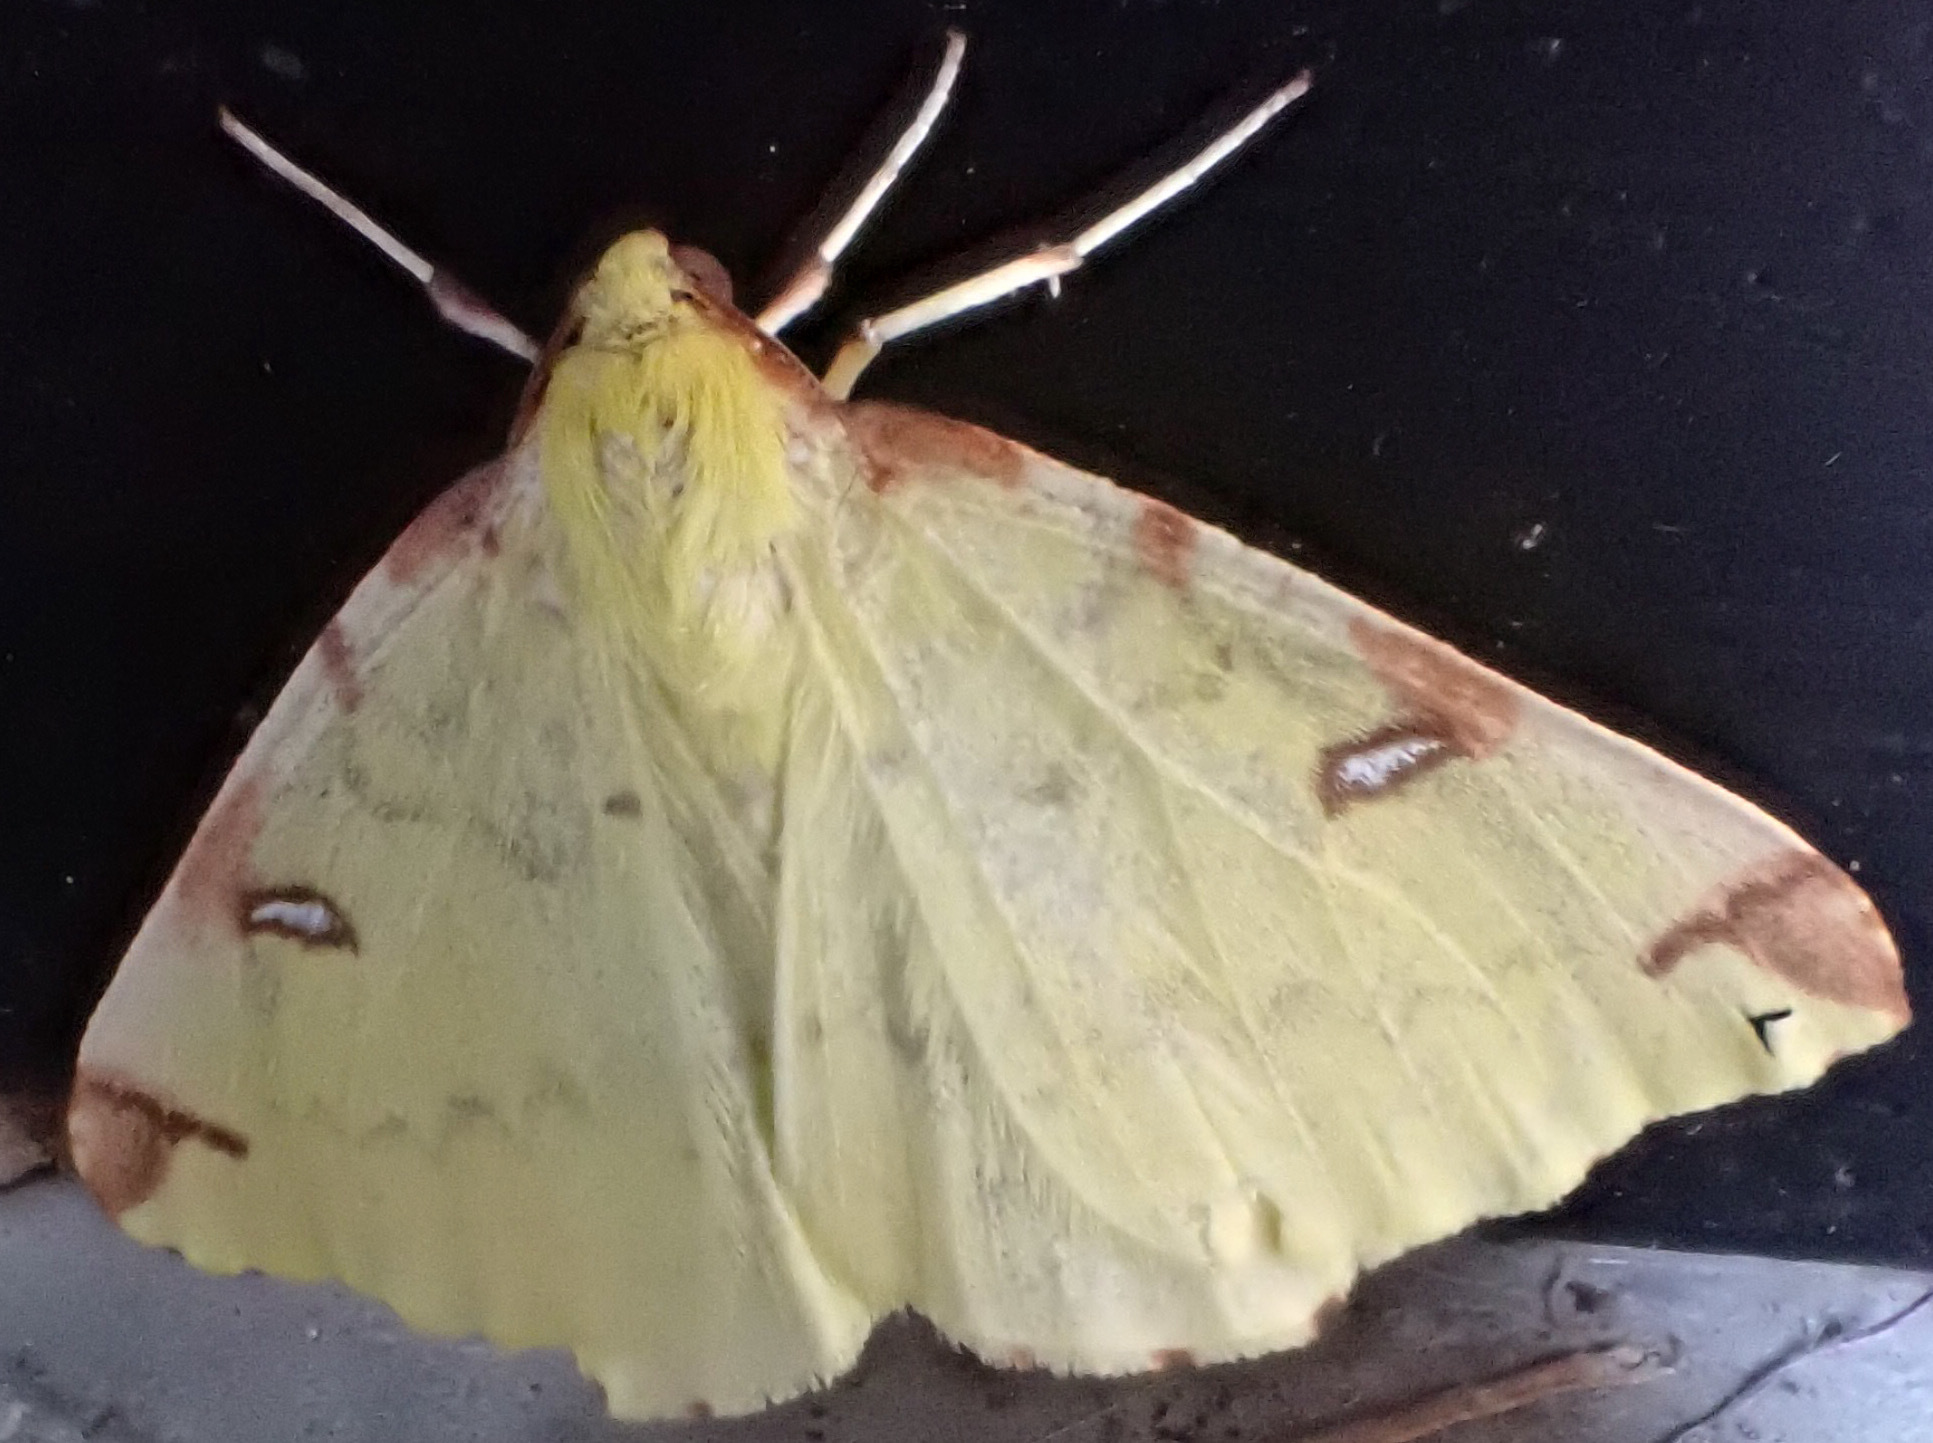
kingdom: Animalia
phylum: Arthropoda
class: Insecta
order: Lepidoptera
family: Geometridae
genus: Opisthograptis
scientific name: Opisthograptis luteolata
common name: Brimstone moth
